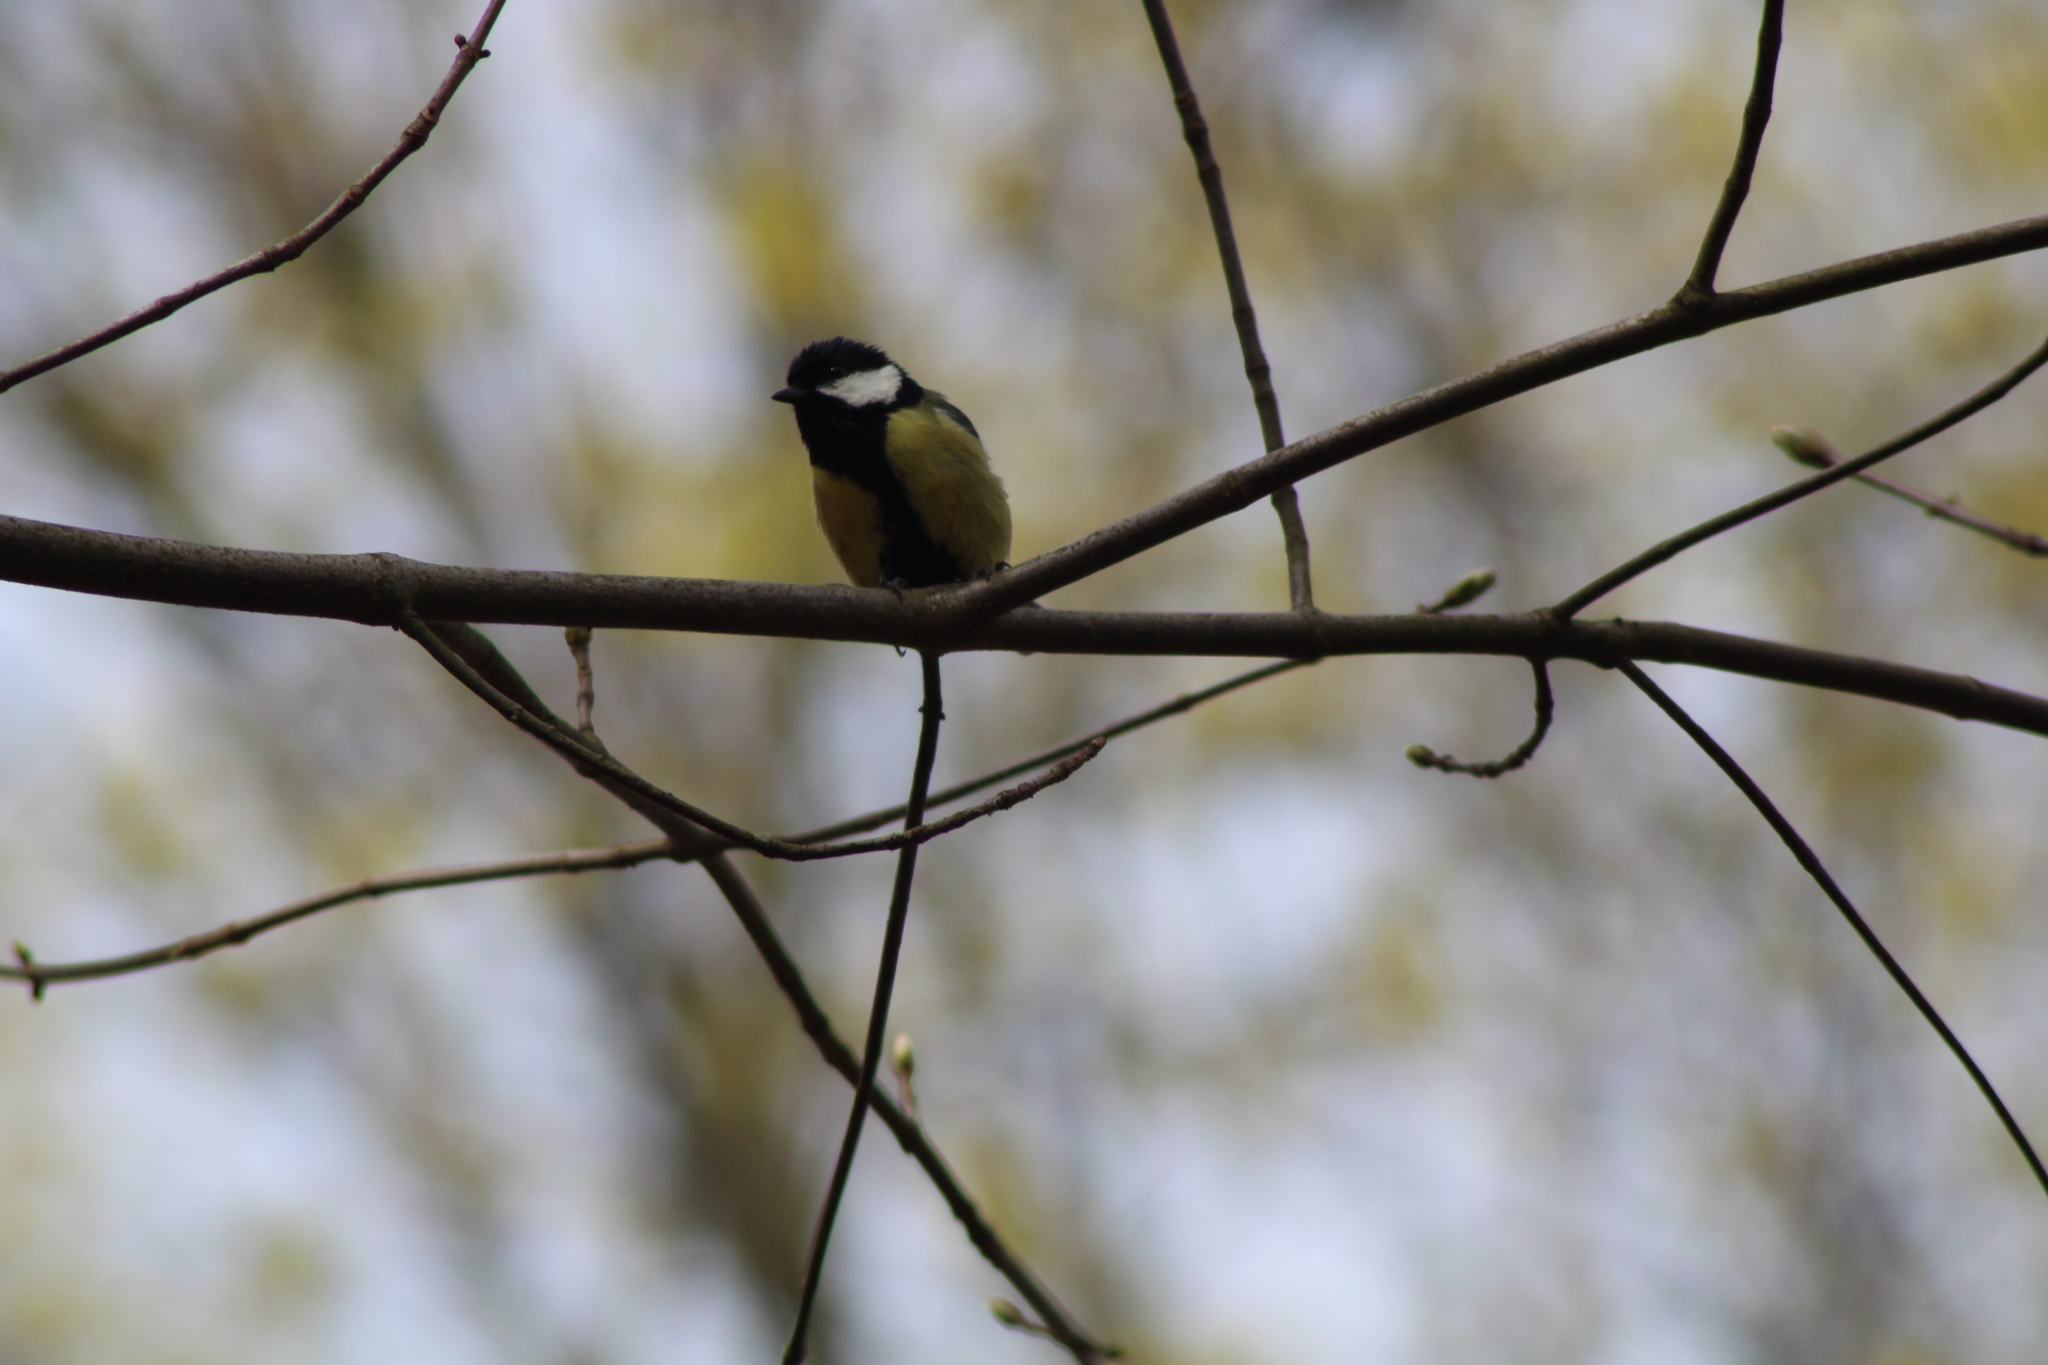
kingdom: Animalia
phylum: Chordata
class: Aves
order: Passeriformes
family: Paridae
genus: Parus
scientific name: Parus major
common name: Great tit
